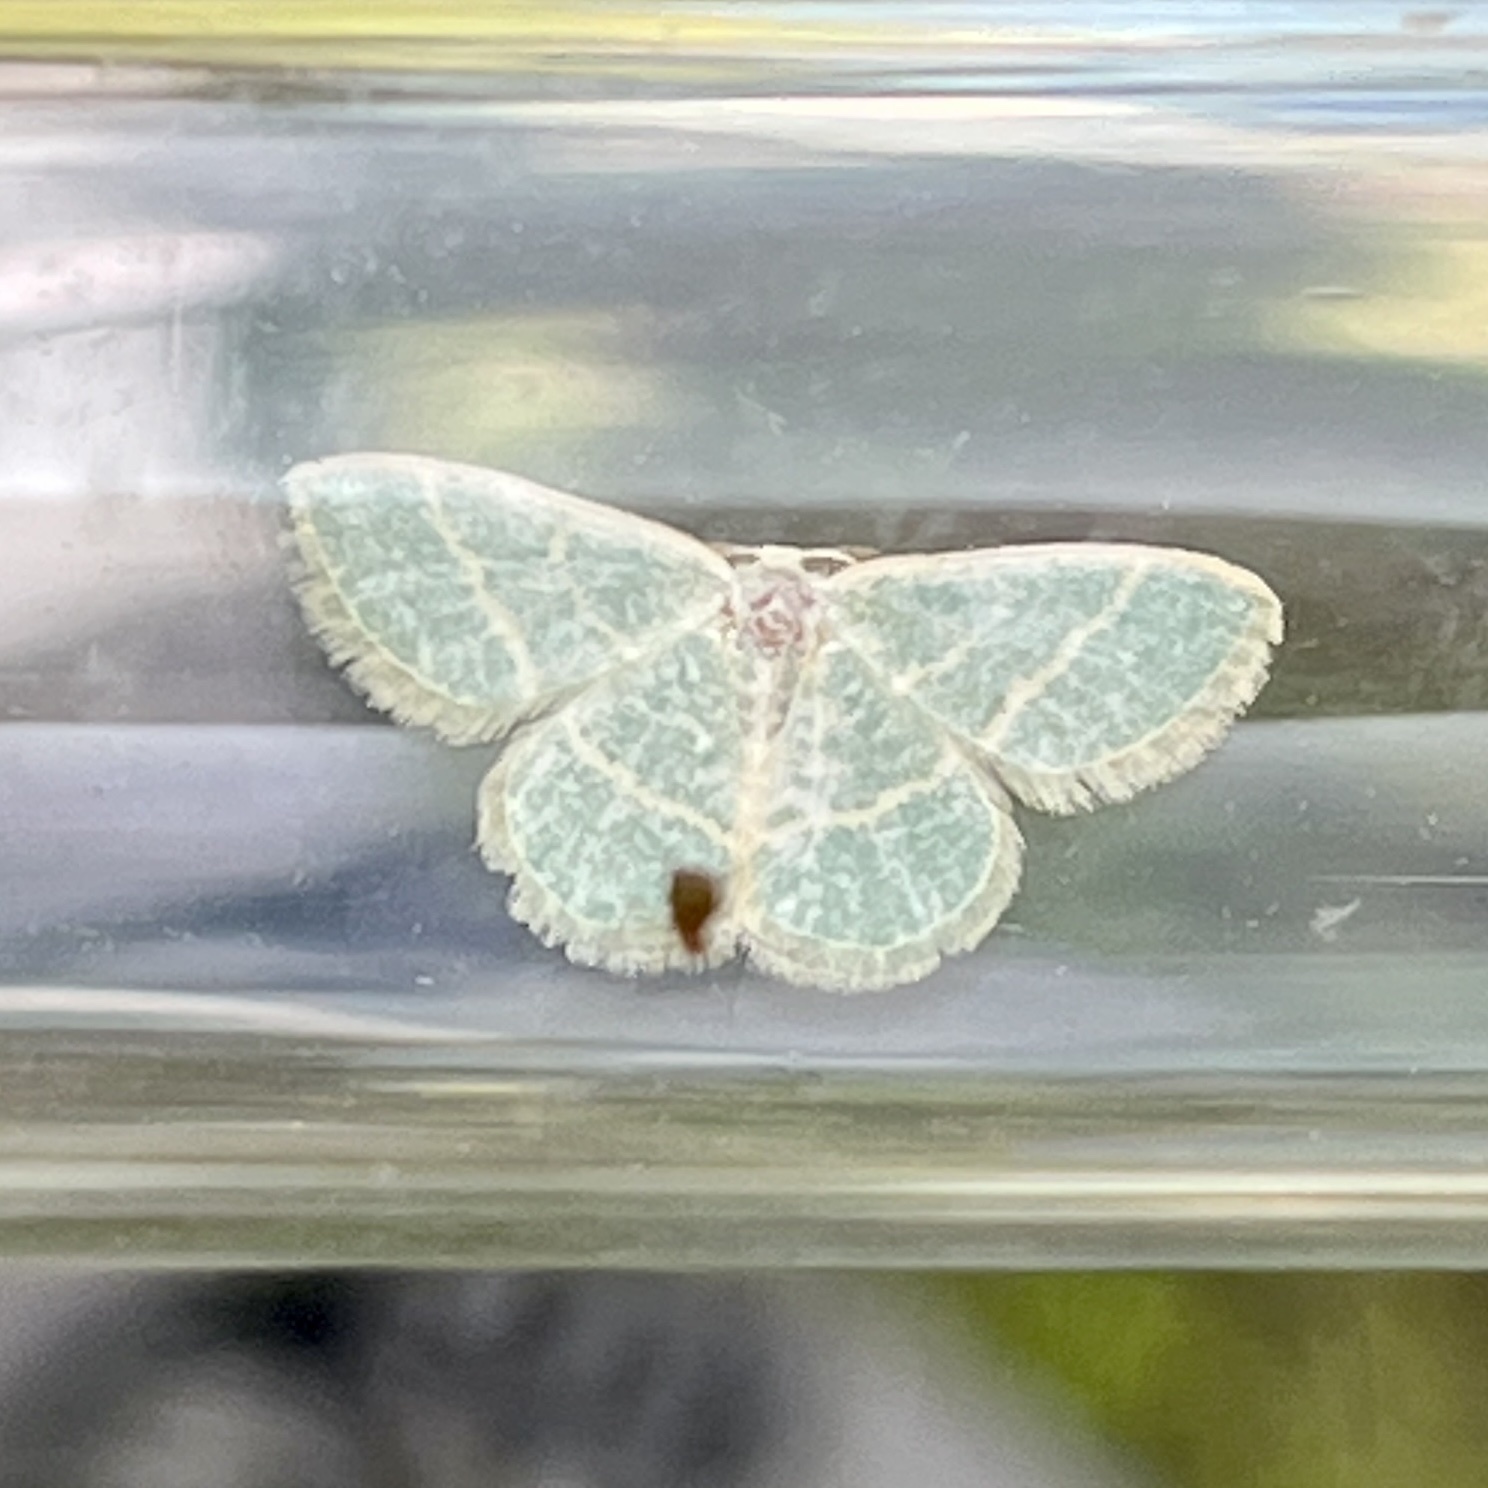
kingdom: Animalia
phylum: Arthropoda
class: Insecta
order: Lepidoptera
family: Geometridae
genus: Chlorochlamys
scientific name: Chlorochlamys chloroleucaria
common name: Blackberry looper
